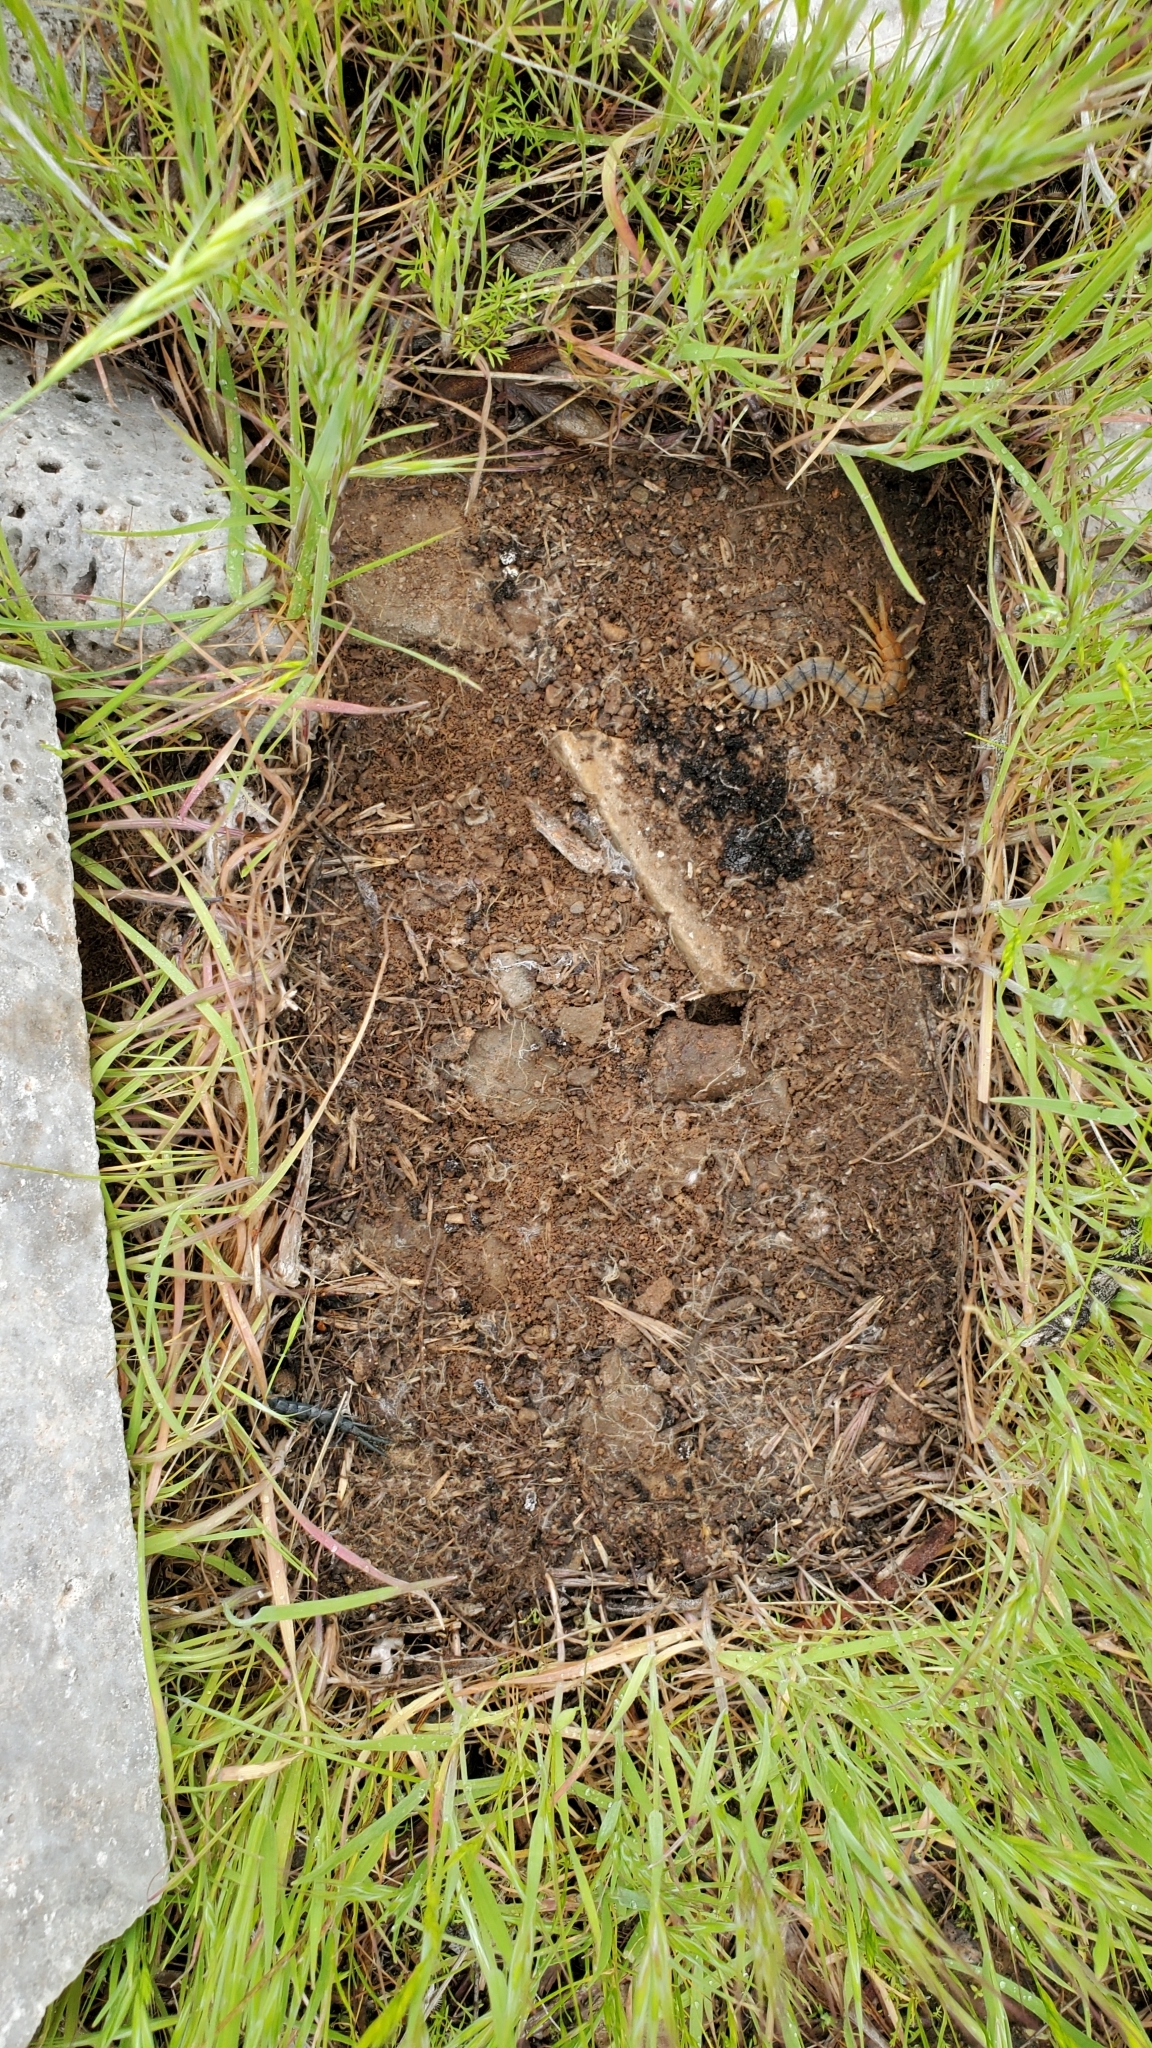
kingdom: Animalia
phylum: Arthropoda
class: Chilopoda
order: Scolopendromorpha
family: Scolopendridae
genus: Scolopendra
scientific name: Scolopendra polymorpha
